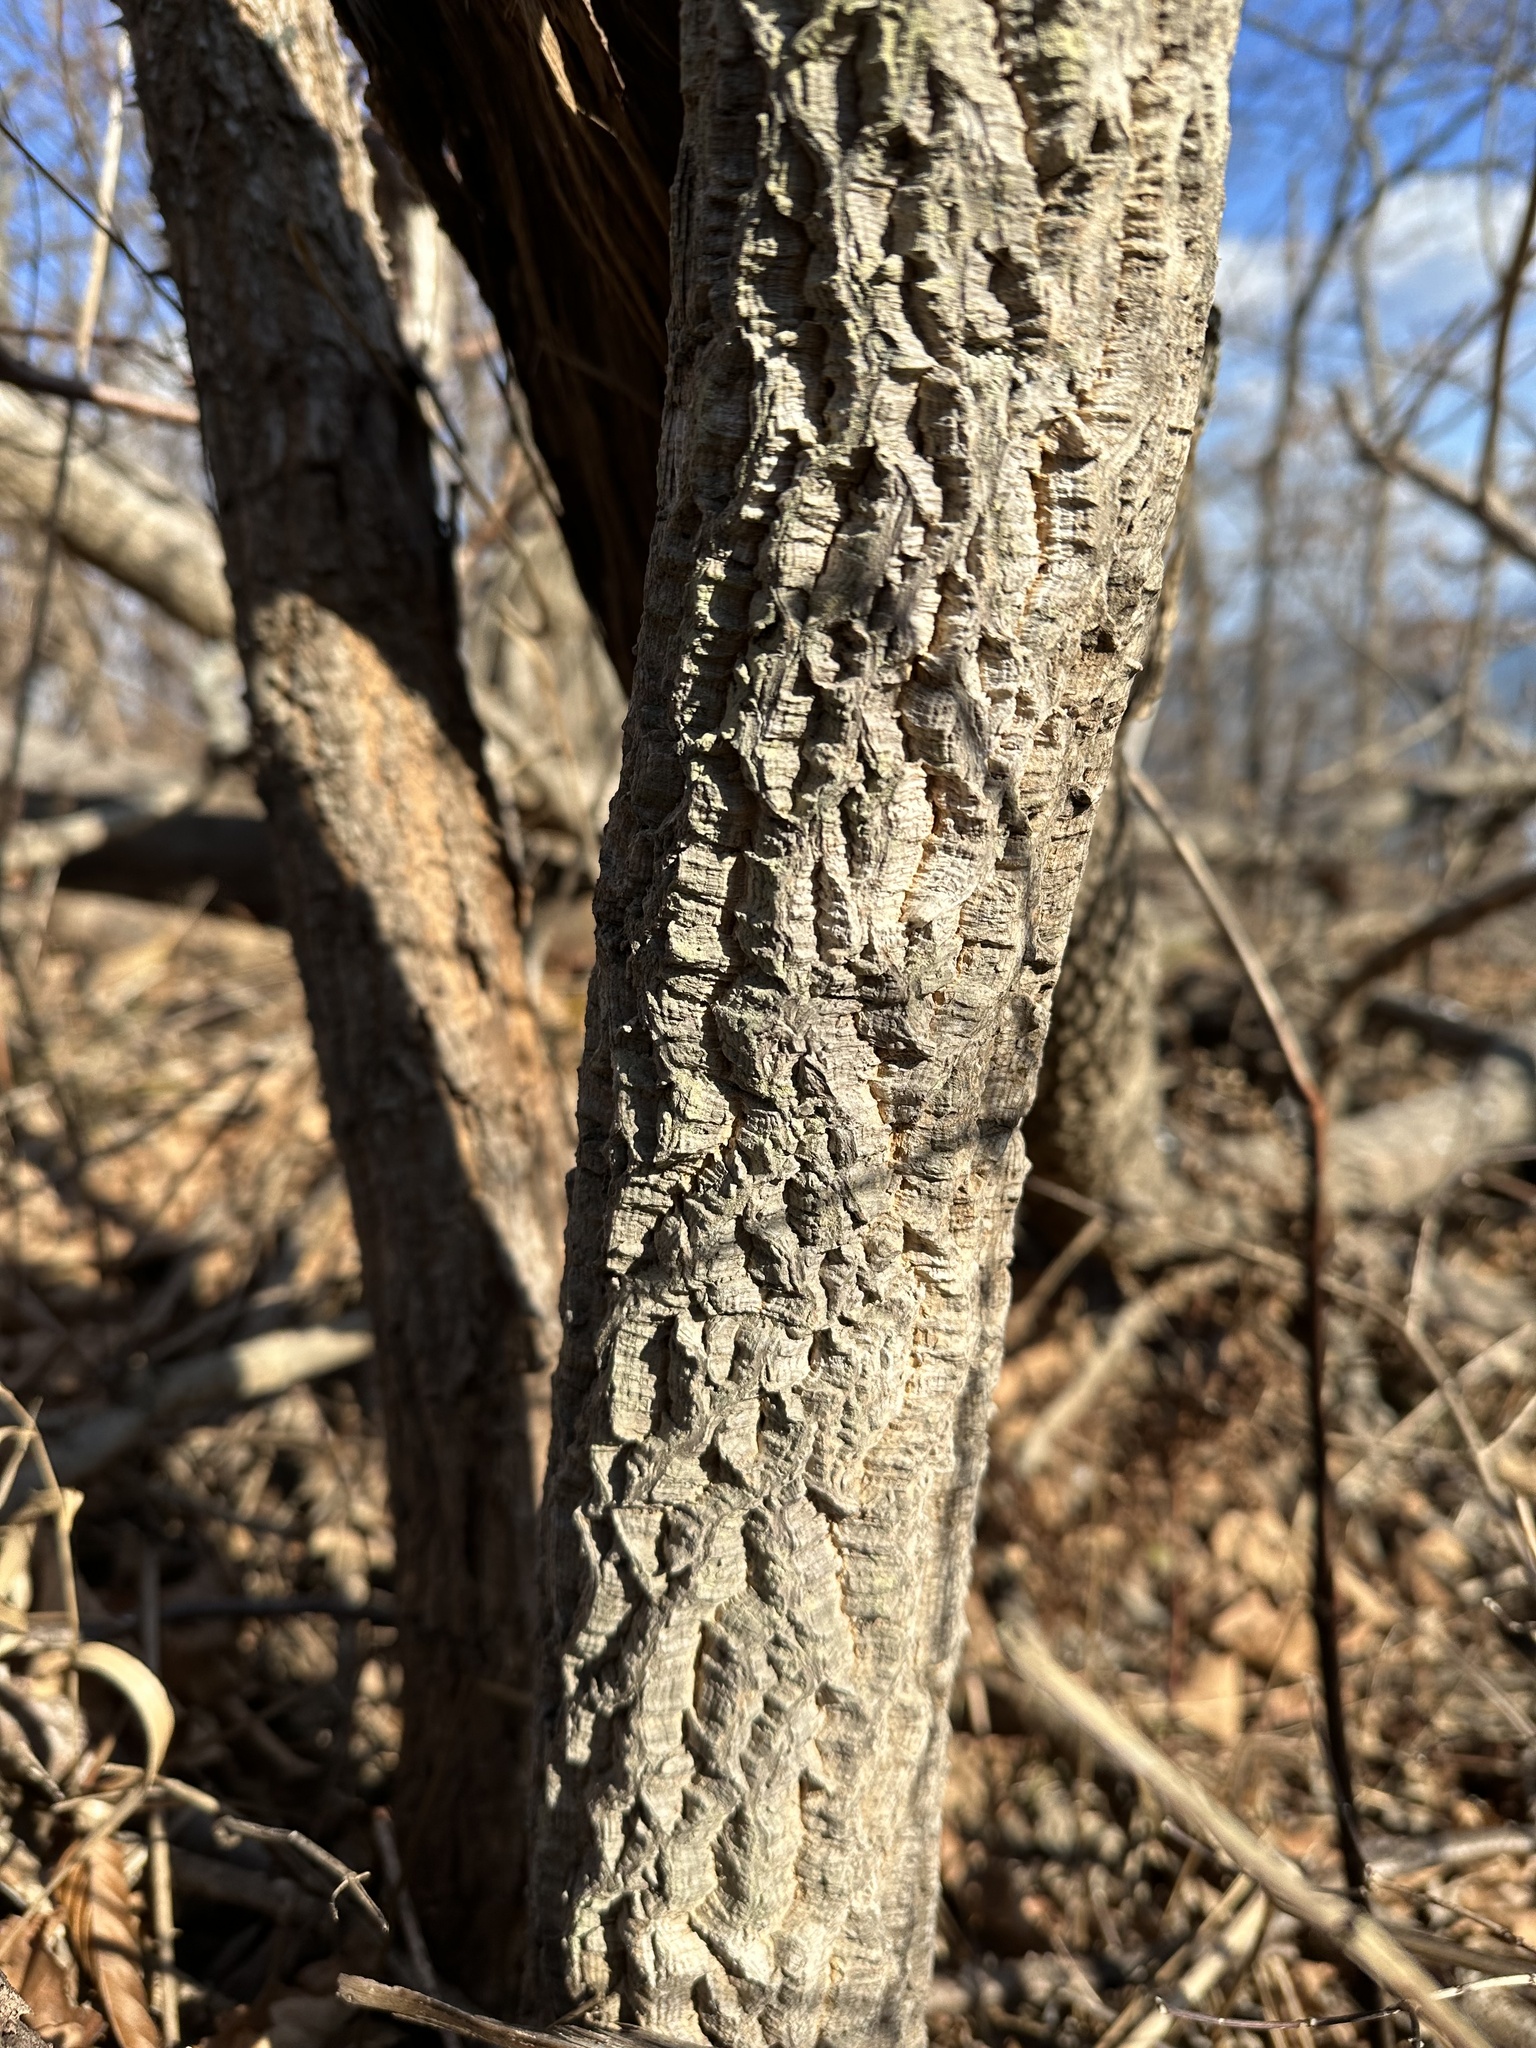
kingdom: Plantae
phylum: Tracheophyta
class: Magnoliopsida
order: Sapindales
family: Rutaceae
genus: Phellodendron
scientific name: Phellodendron amurense
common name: Amur corktree
